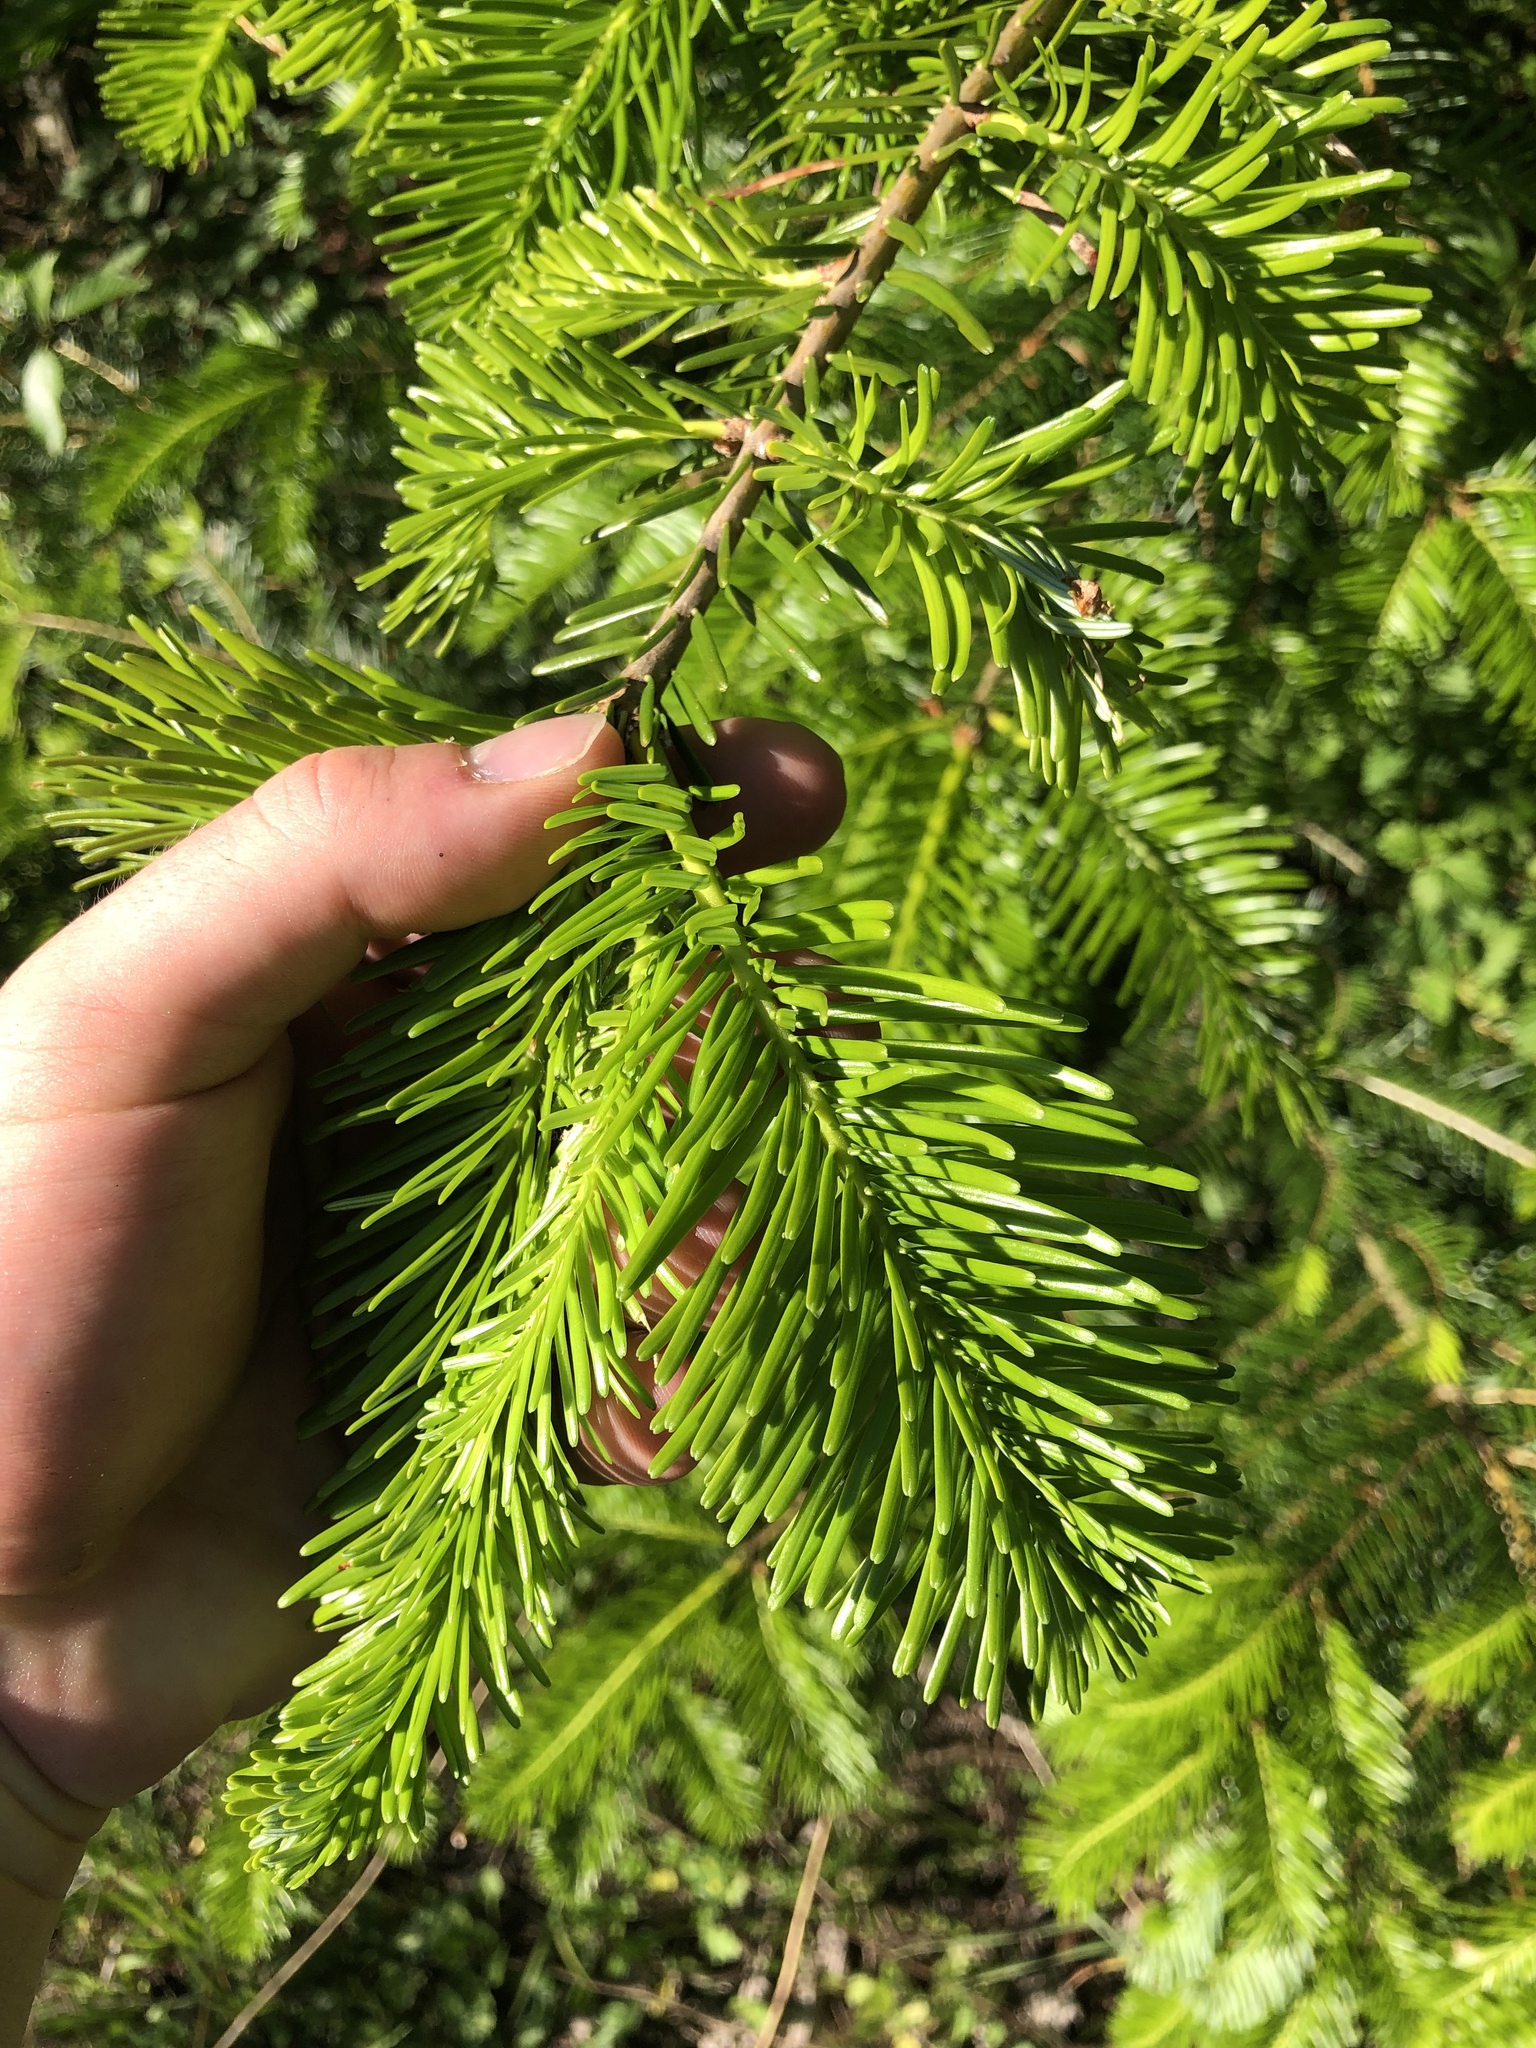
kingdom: Plantae
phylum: Tracheophyta
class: Pinopsida
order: Pinales
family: Pinaceae
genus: Abies
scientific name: Abies grandis
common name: Giant fir
